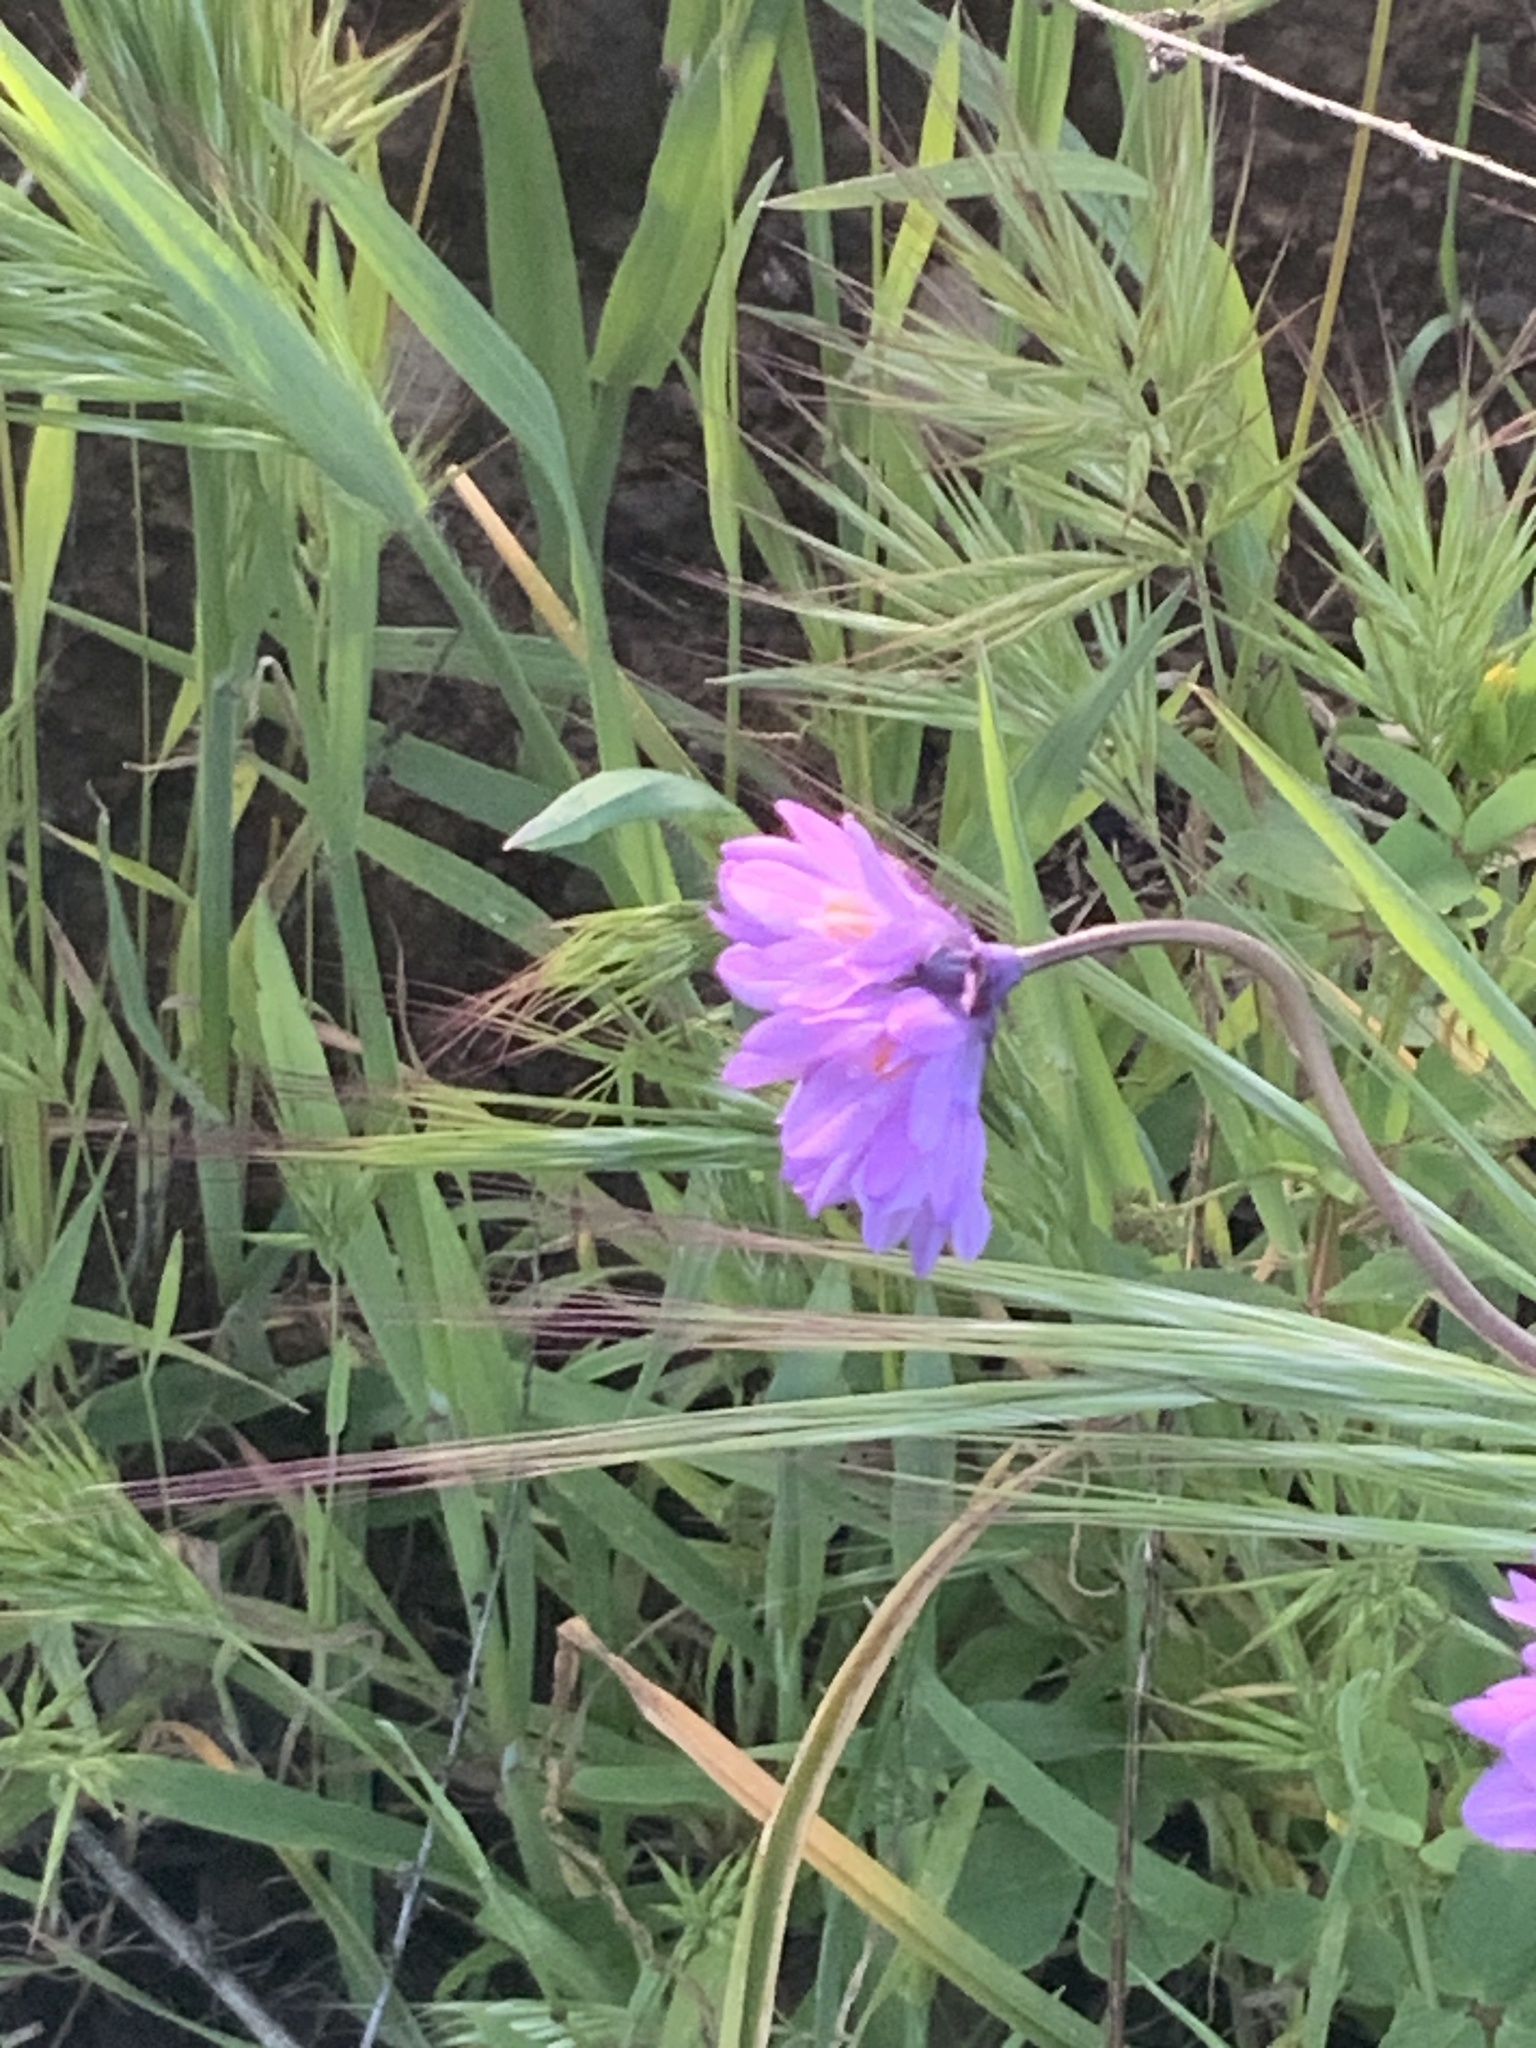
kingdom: Plantae
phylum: Tracheophyta
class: Liliopsida
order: Asparagales
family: Asparagaceae
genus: Dipterostemon
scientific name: Dipterostemon capitatus
